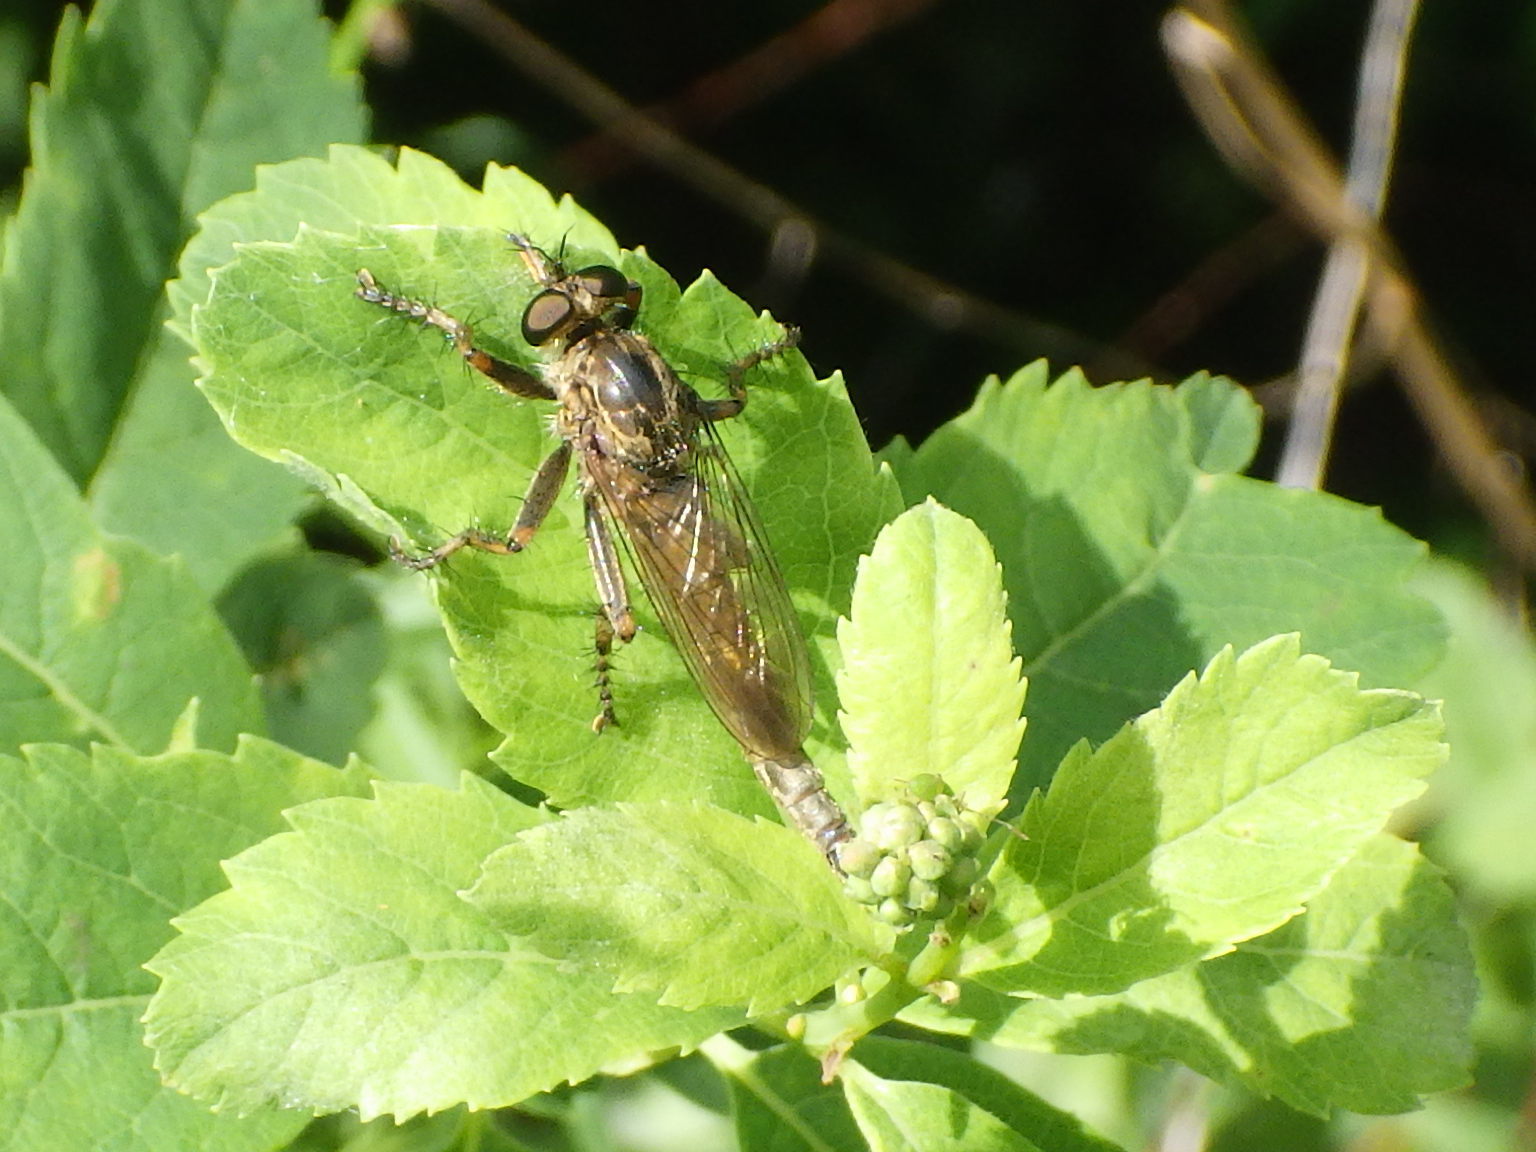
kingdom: Animalia
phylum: Arthropoda
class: Insecta
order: Diptera
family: Asilidae
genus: Machimus
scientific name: Machimus snowii
